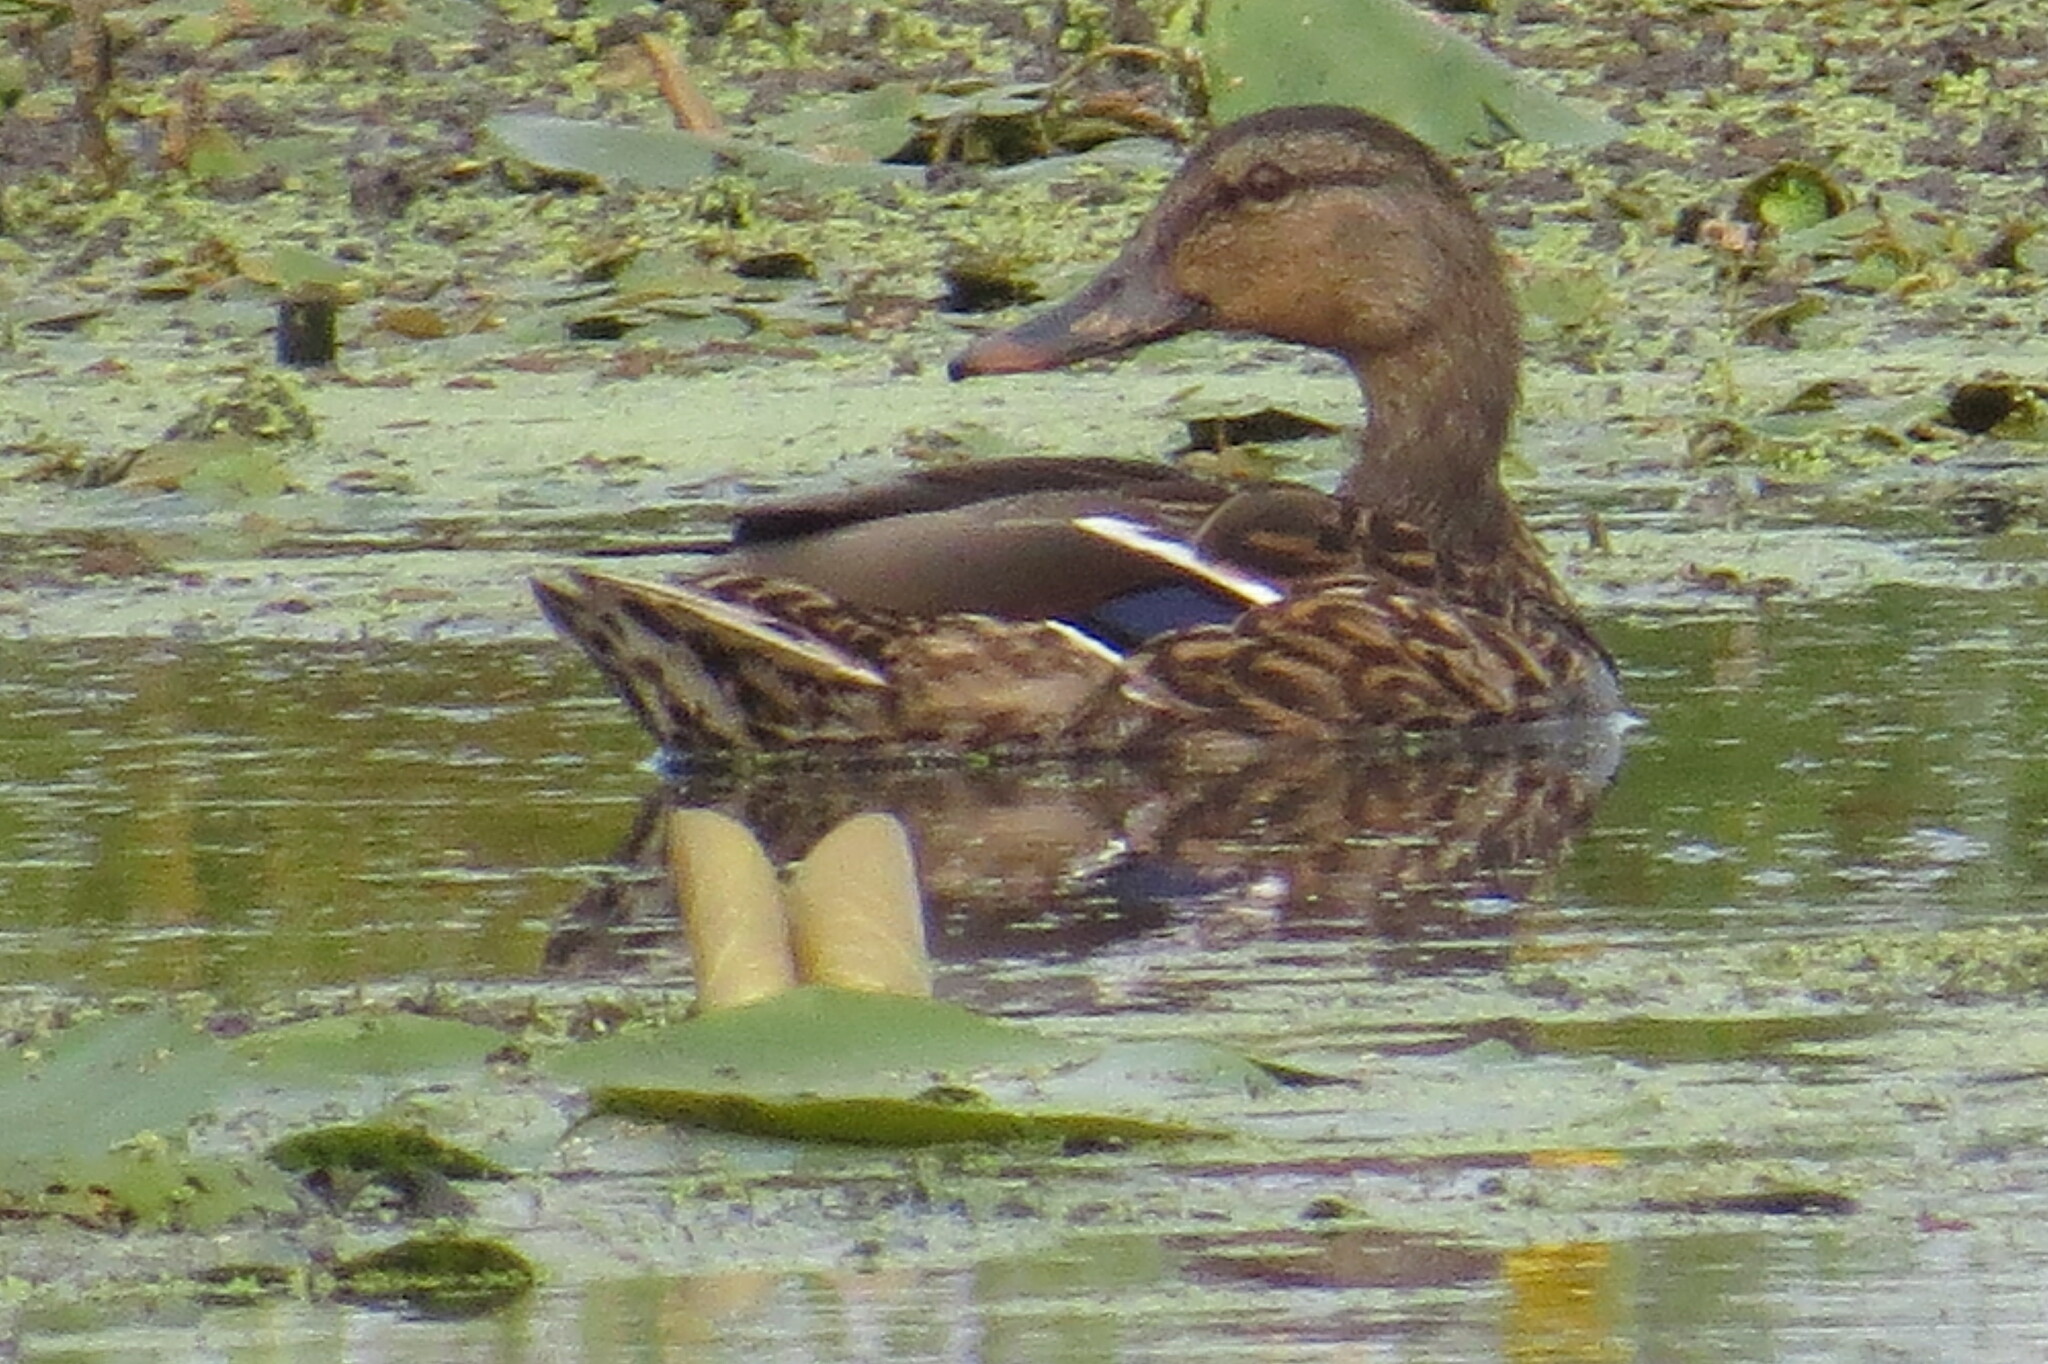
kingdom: Animalia
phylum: Chordata
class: Aves
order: Anseriformes
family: Anatidae
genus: Anas
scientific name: Anas platyrhynchos
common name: Mallard
